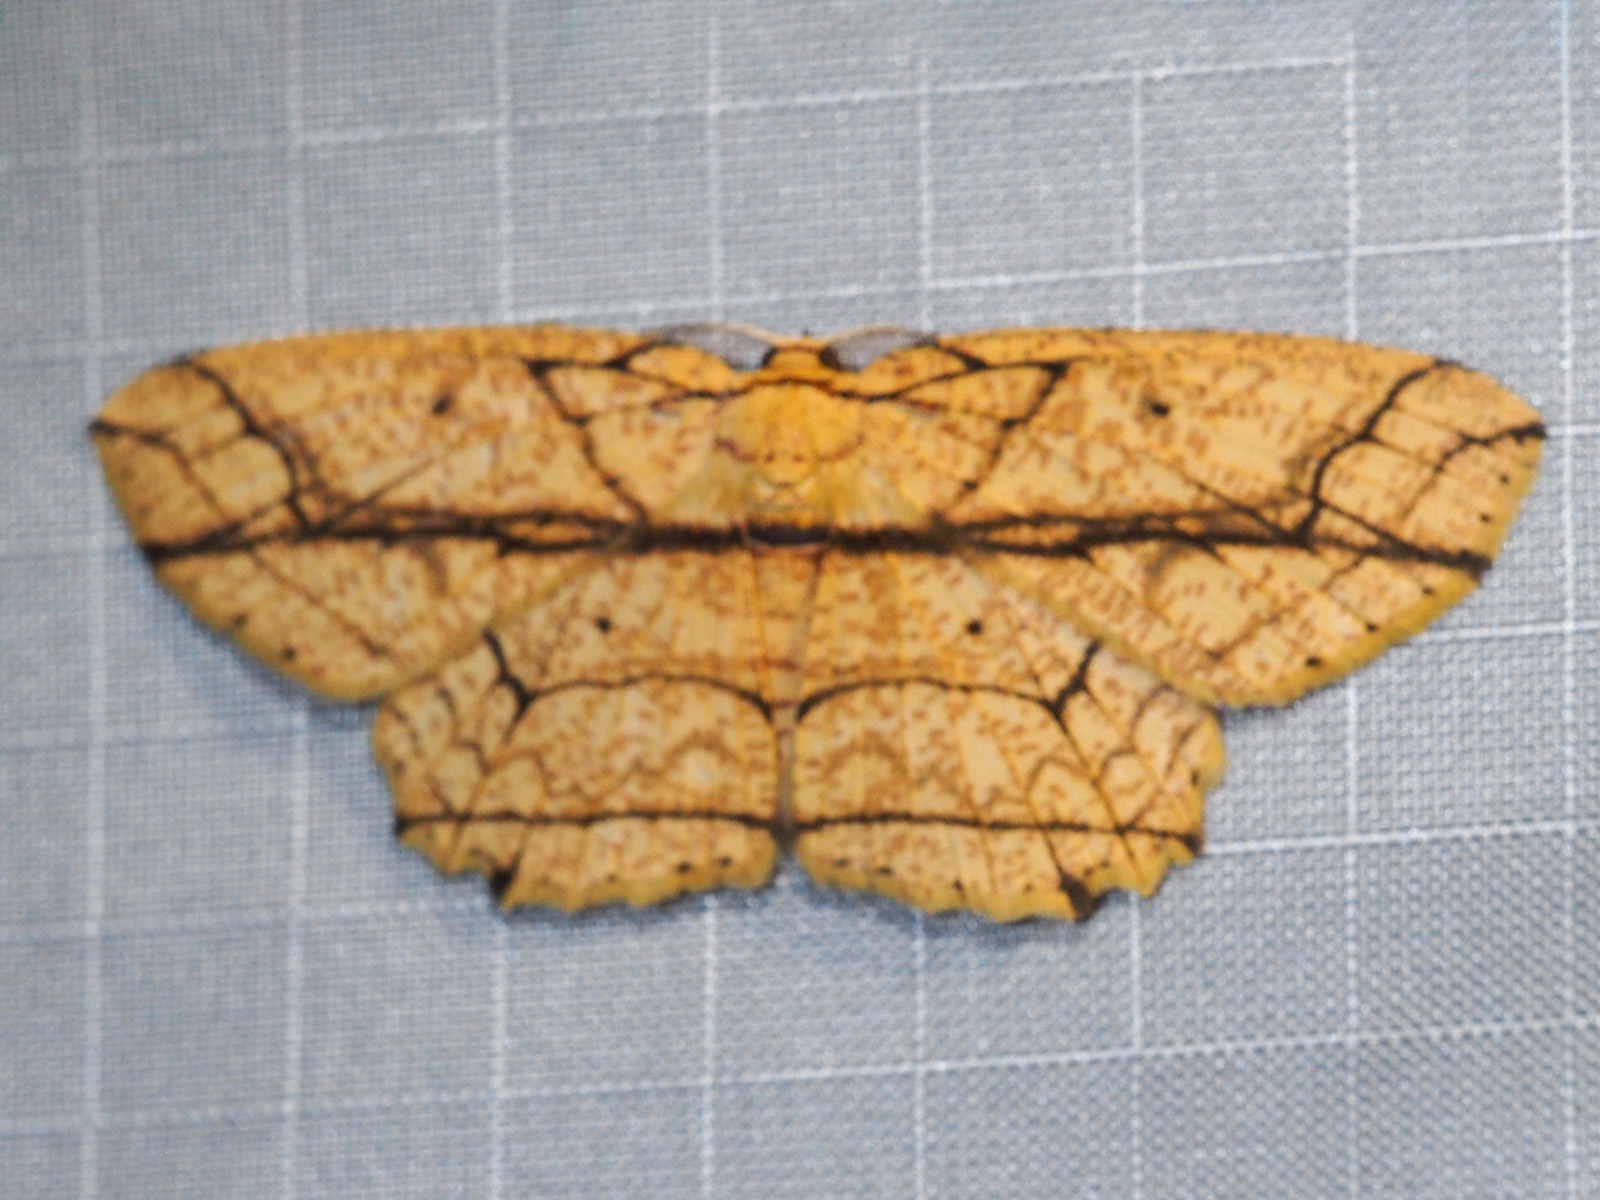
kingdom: Animalia
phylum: Arthropoda
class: Insecta
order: Lepidoptera
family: Geometridae
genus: Parasynegia
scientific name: Parasynegia fortilineata
